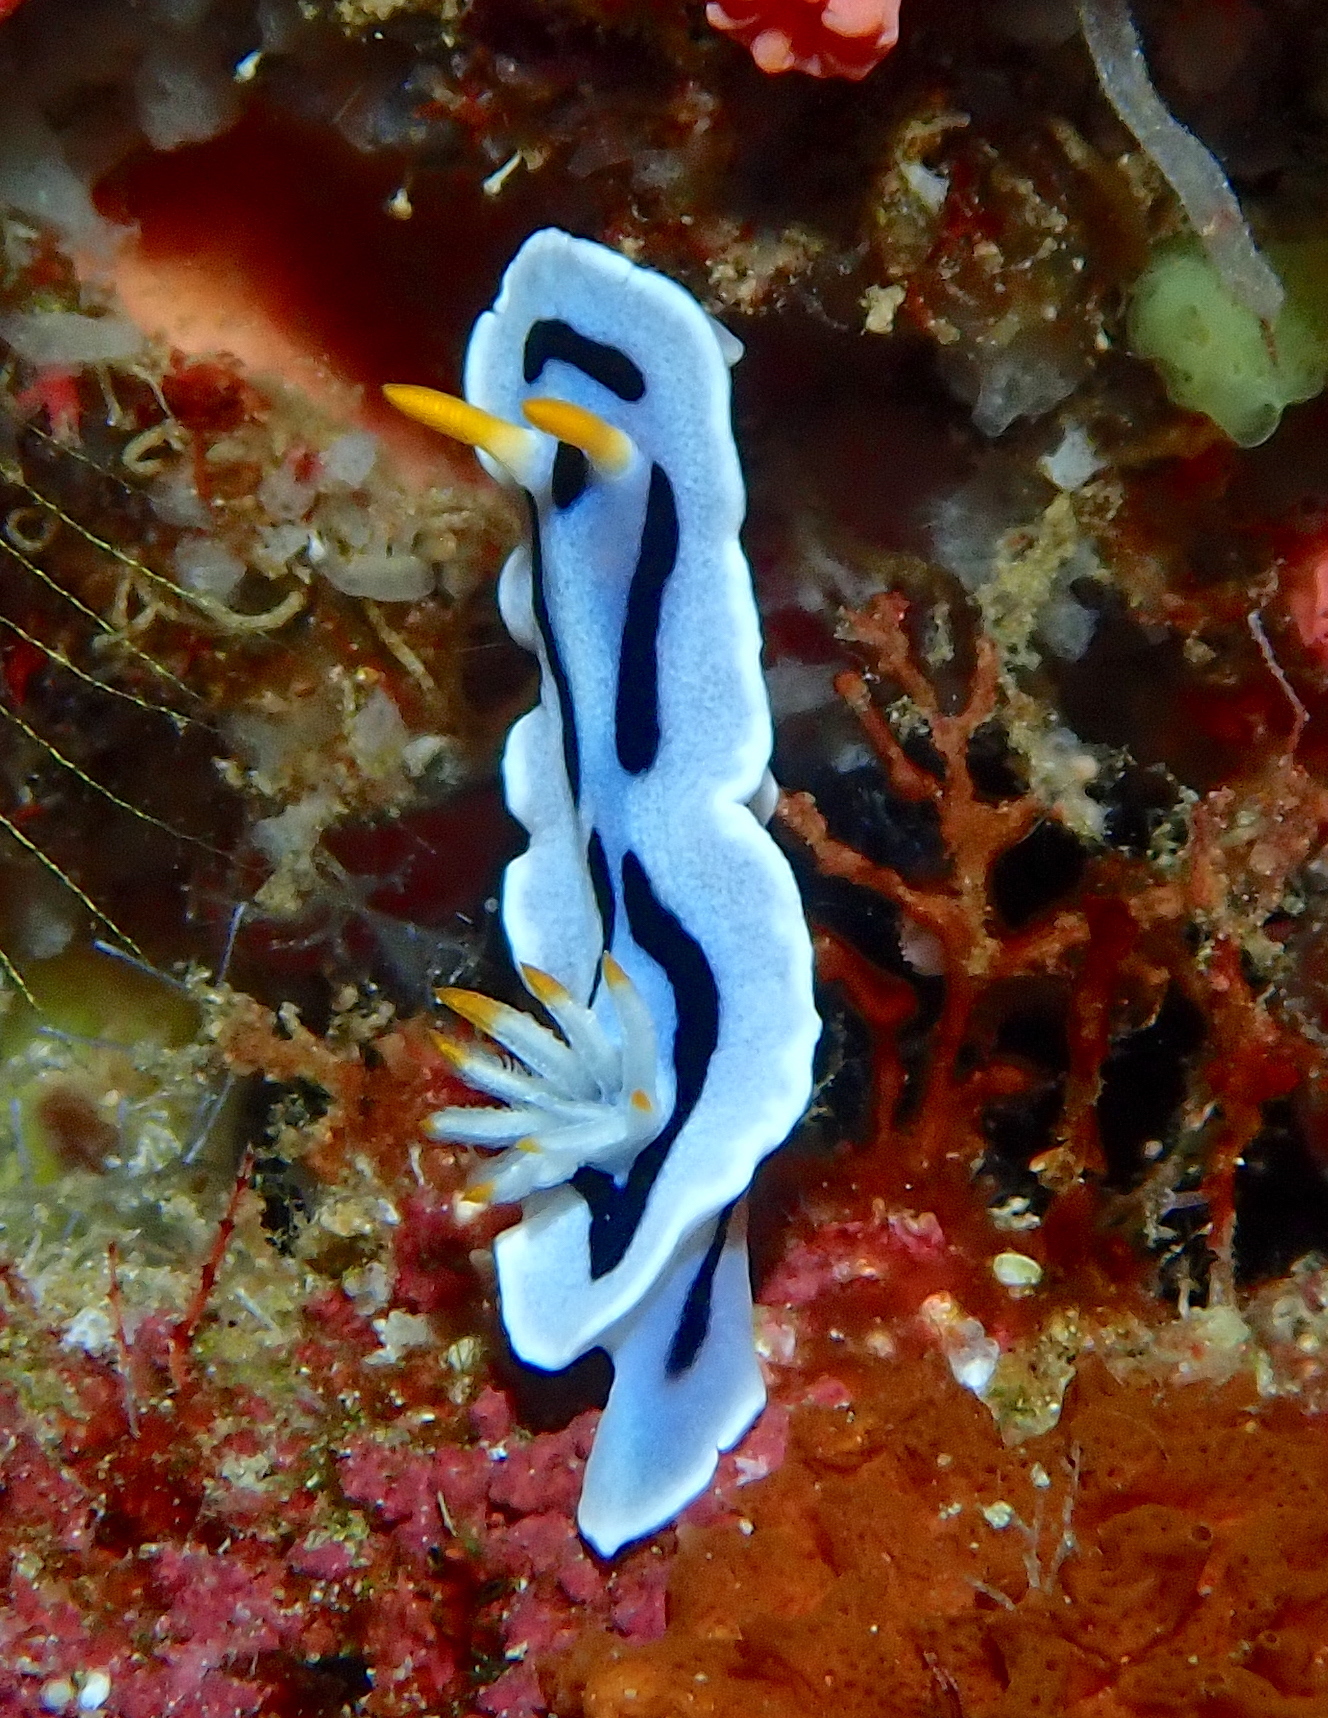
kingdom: Animalia
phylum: Mollusca
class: Gastropoda
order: Nudibranchia
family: Chromodorididae
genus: Chromodoris
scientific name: Chromodoris alcalai
